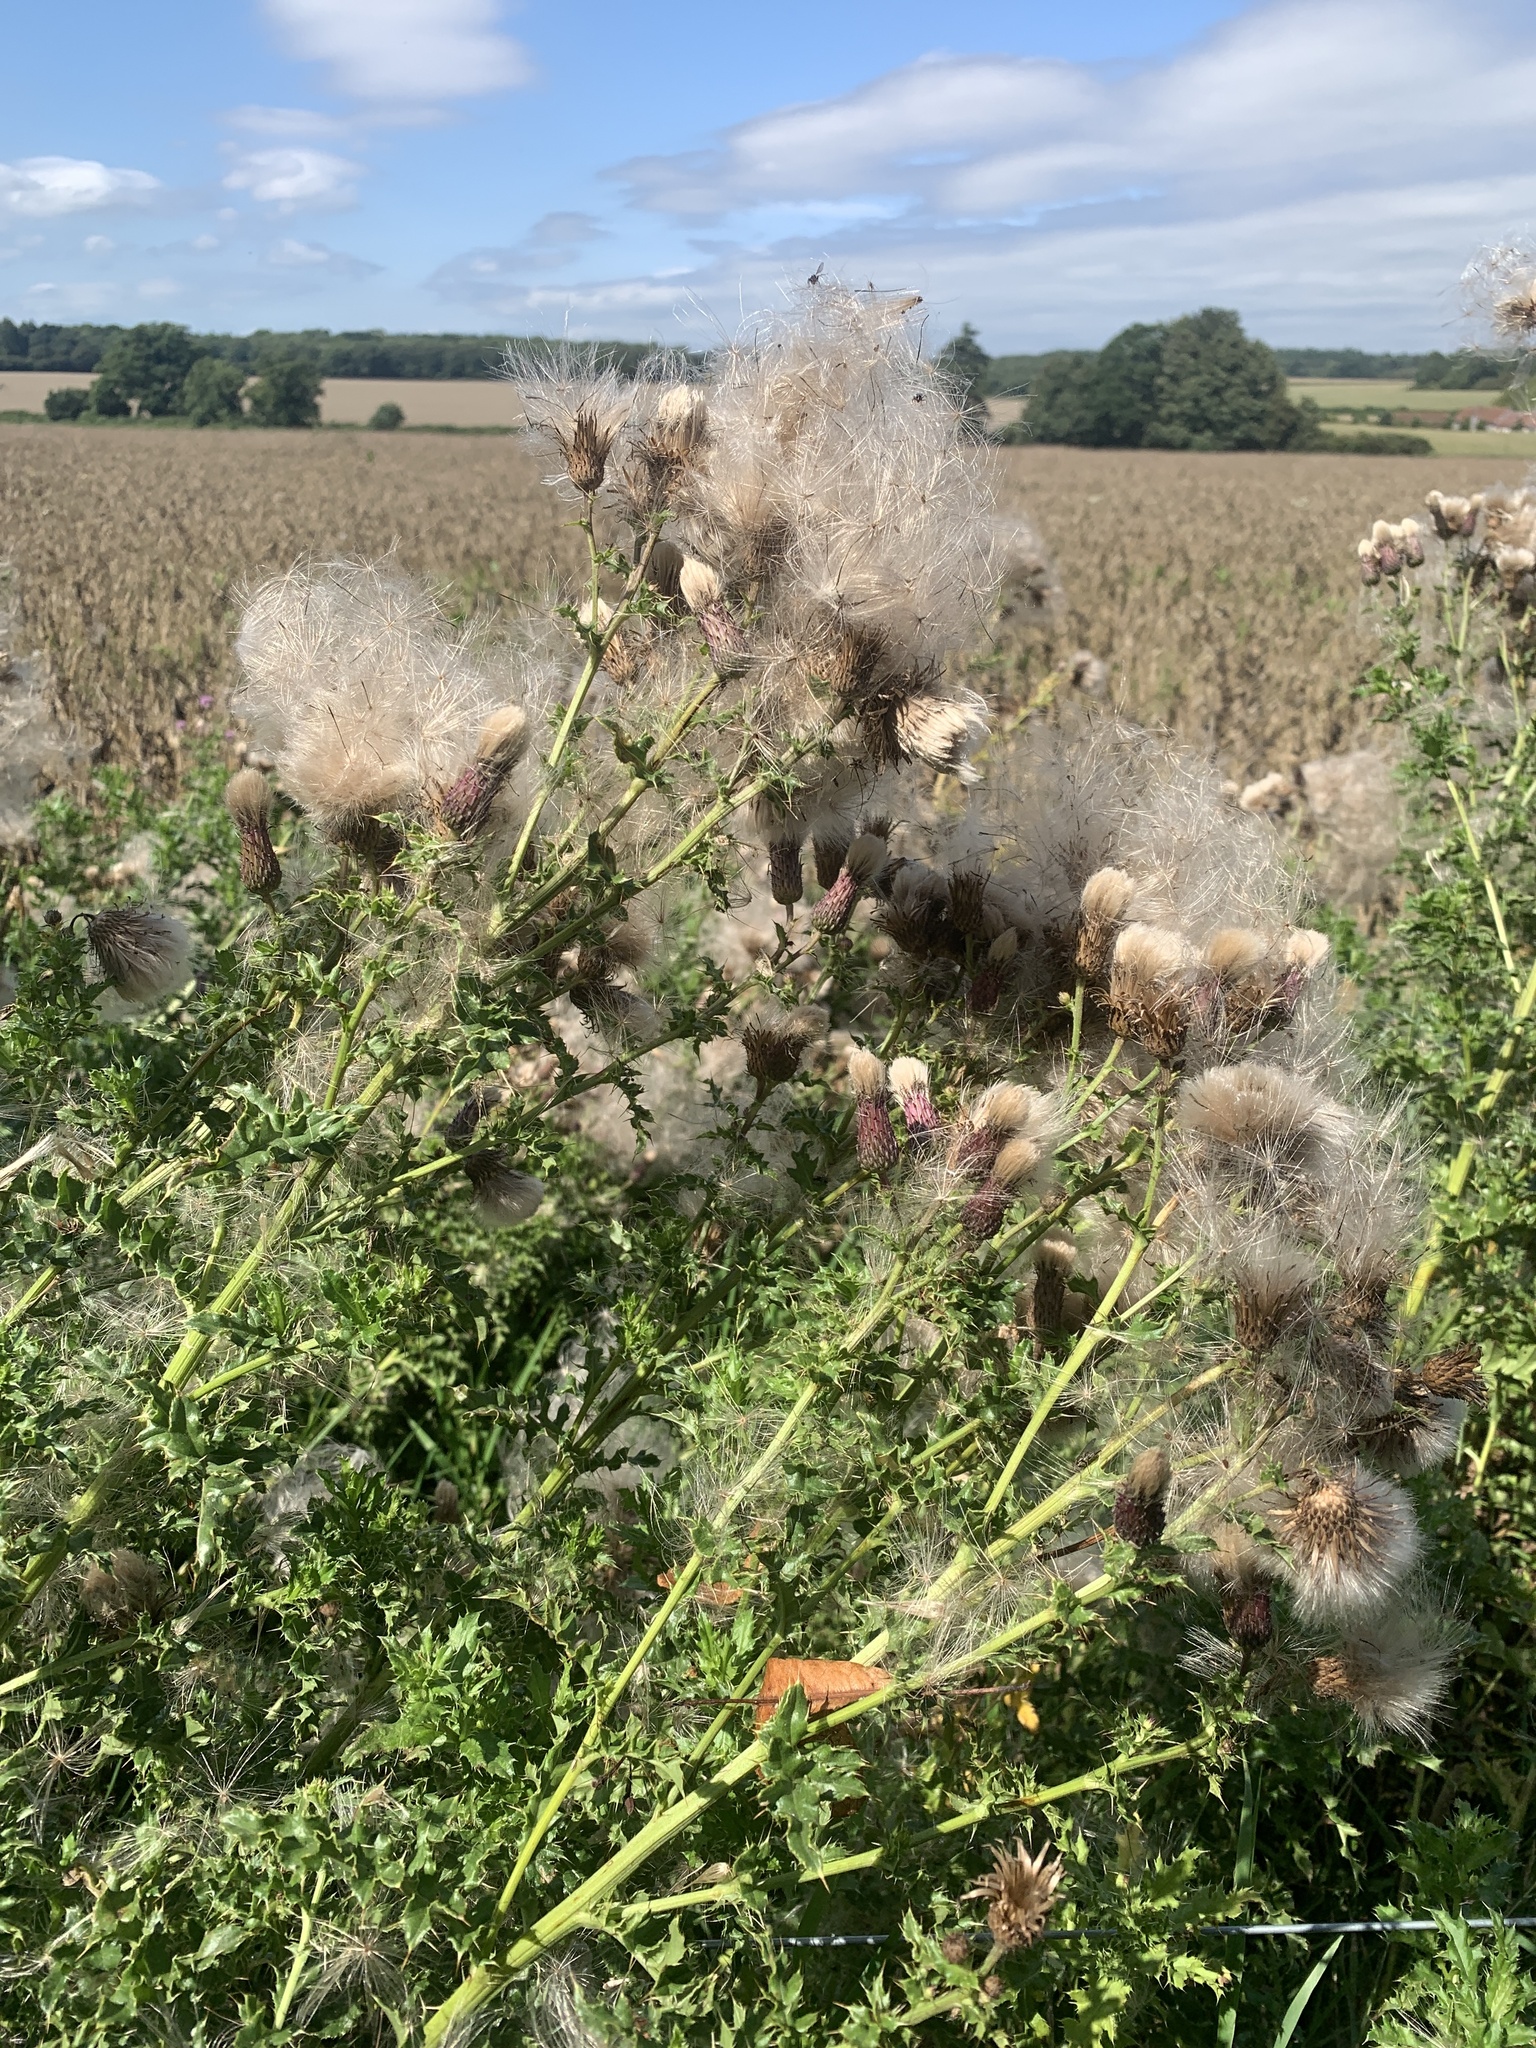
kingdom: Plantae
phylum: Tracheophyta
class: Magnoliopsida
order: Asterales
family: Asteraceae
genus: Cirsium
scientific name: Cirsium arvense
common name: Creeping thistle
